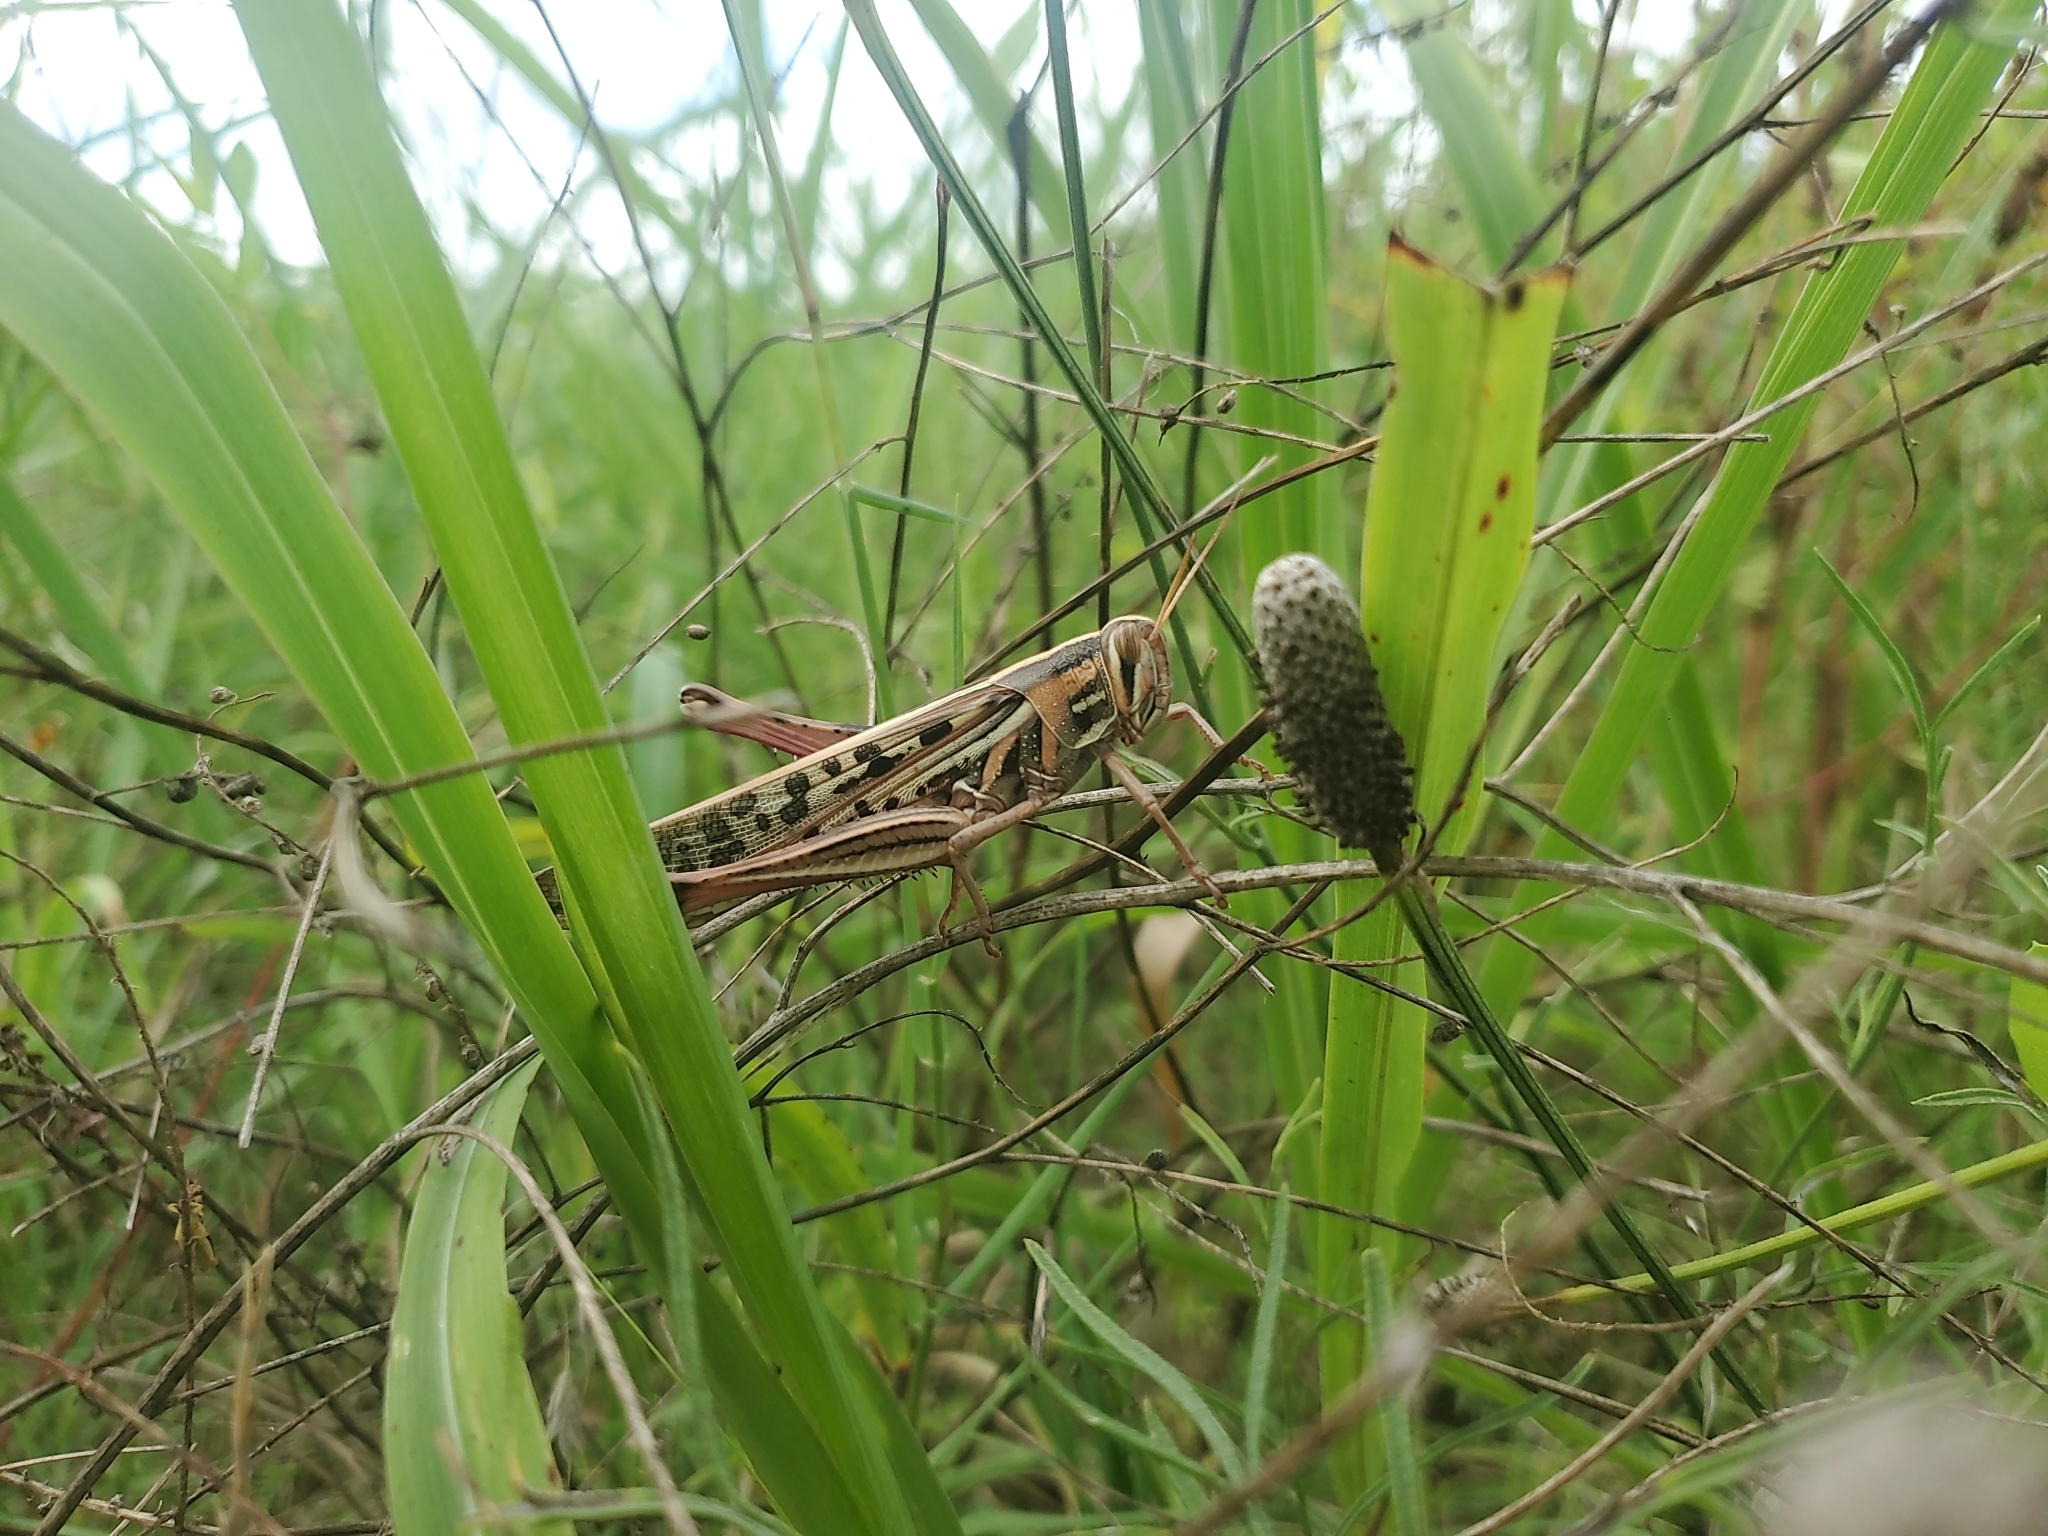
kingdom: Animalia
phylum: Arthropoda
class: Insecta
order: Orthoptera
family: Acrididae
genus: Schistocerca
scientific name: Schistocerca americana
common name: American bird locust
